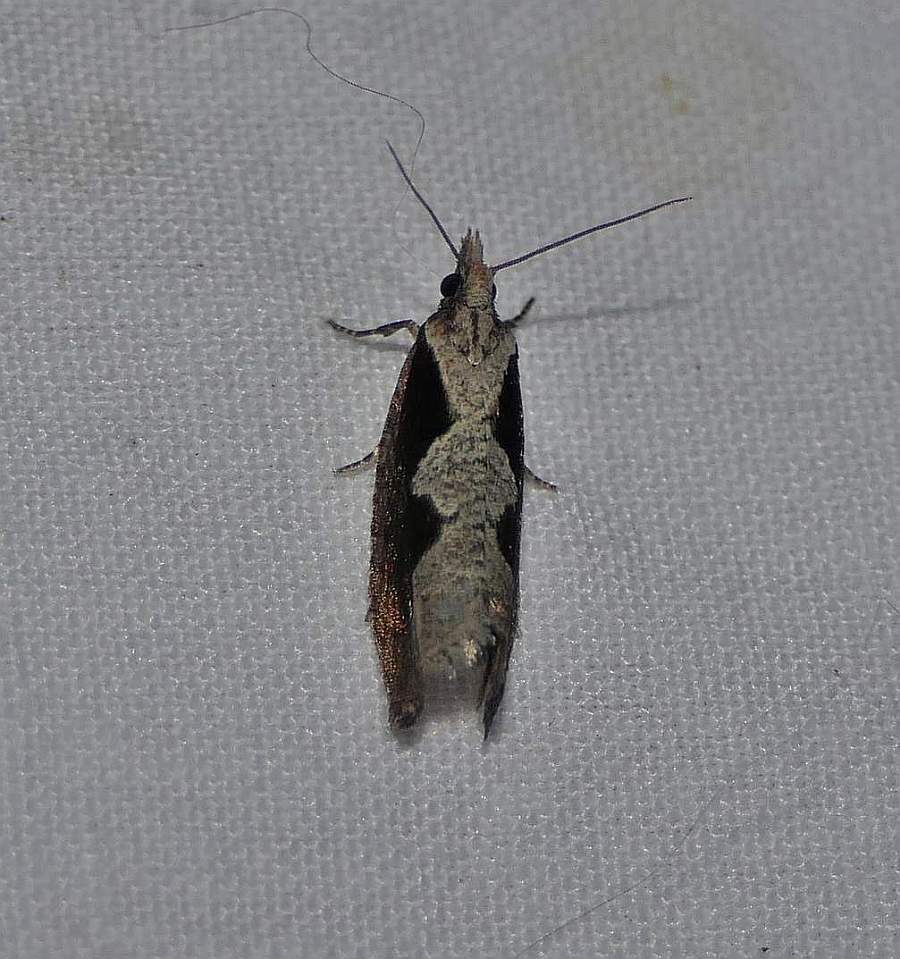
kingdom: Animalia
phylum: Arthropoda
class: Insecta
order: Lepidoptera
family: Tortricidae
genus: Epinotia
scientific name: Epinotia lindana
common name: Diamondback epinotia moth
